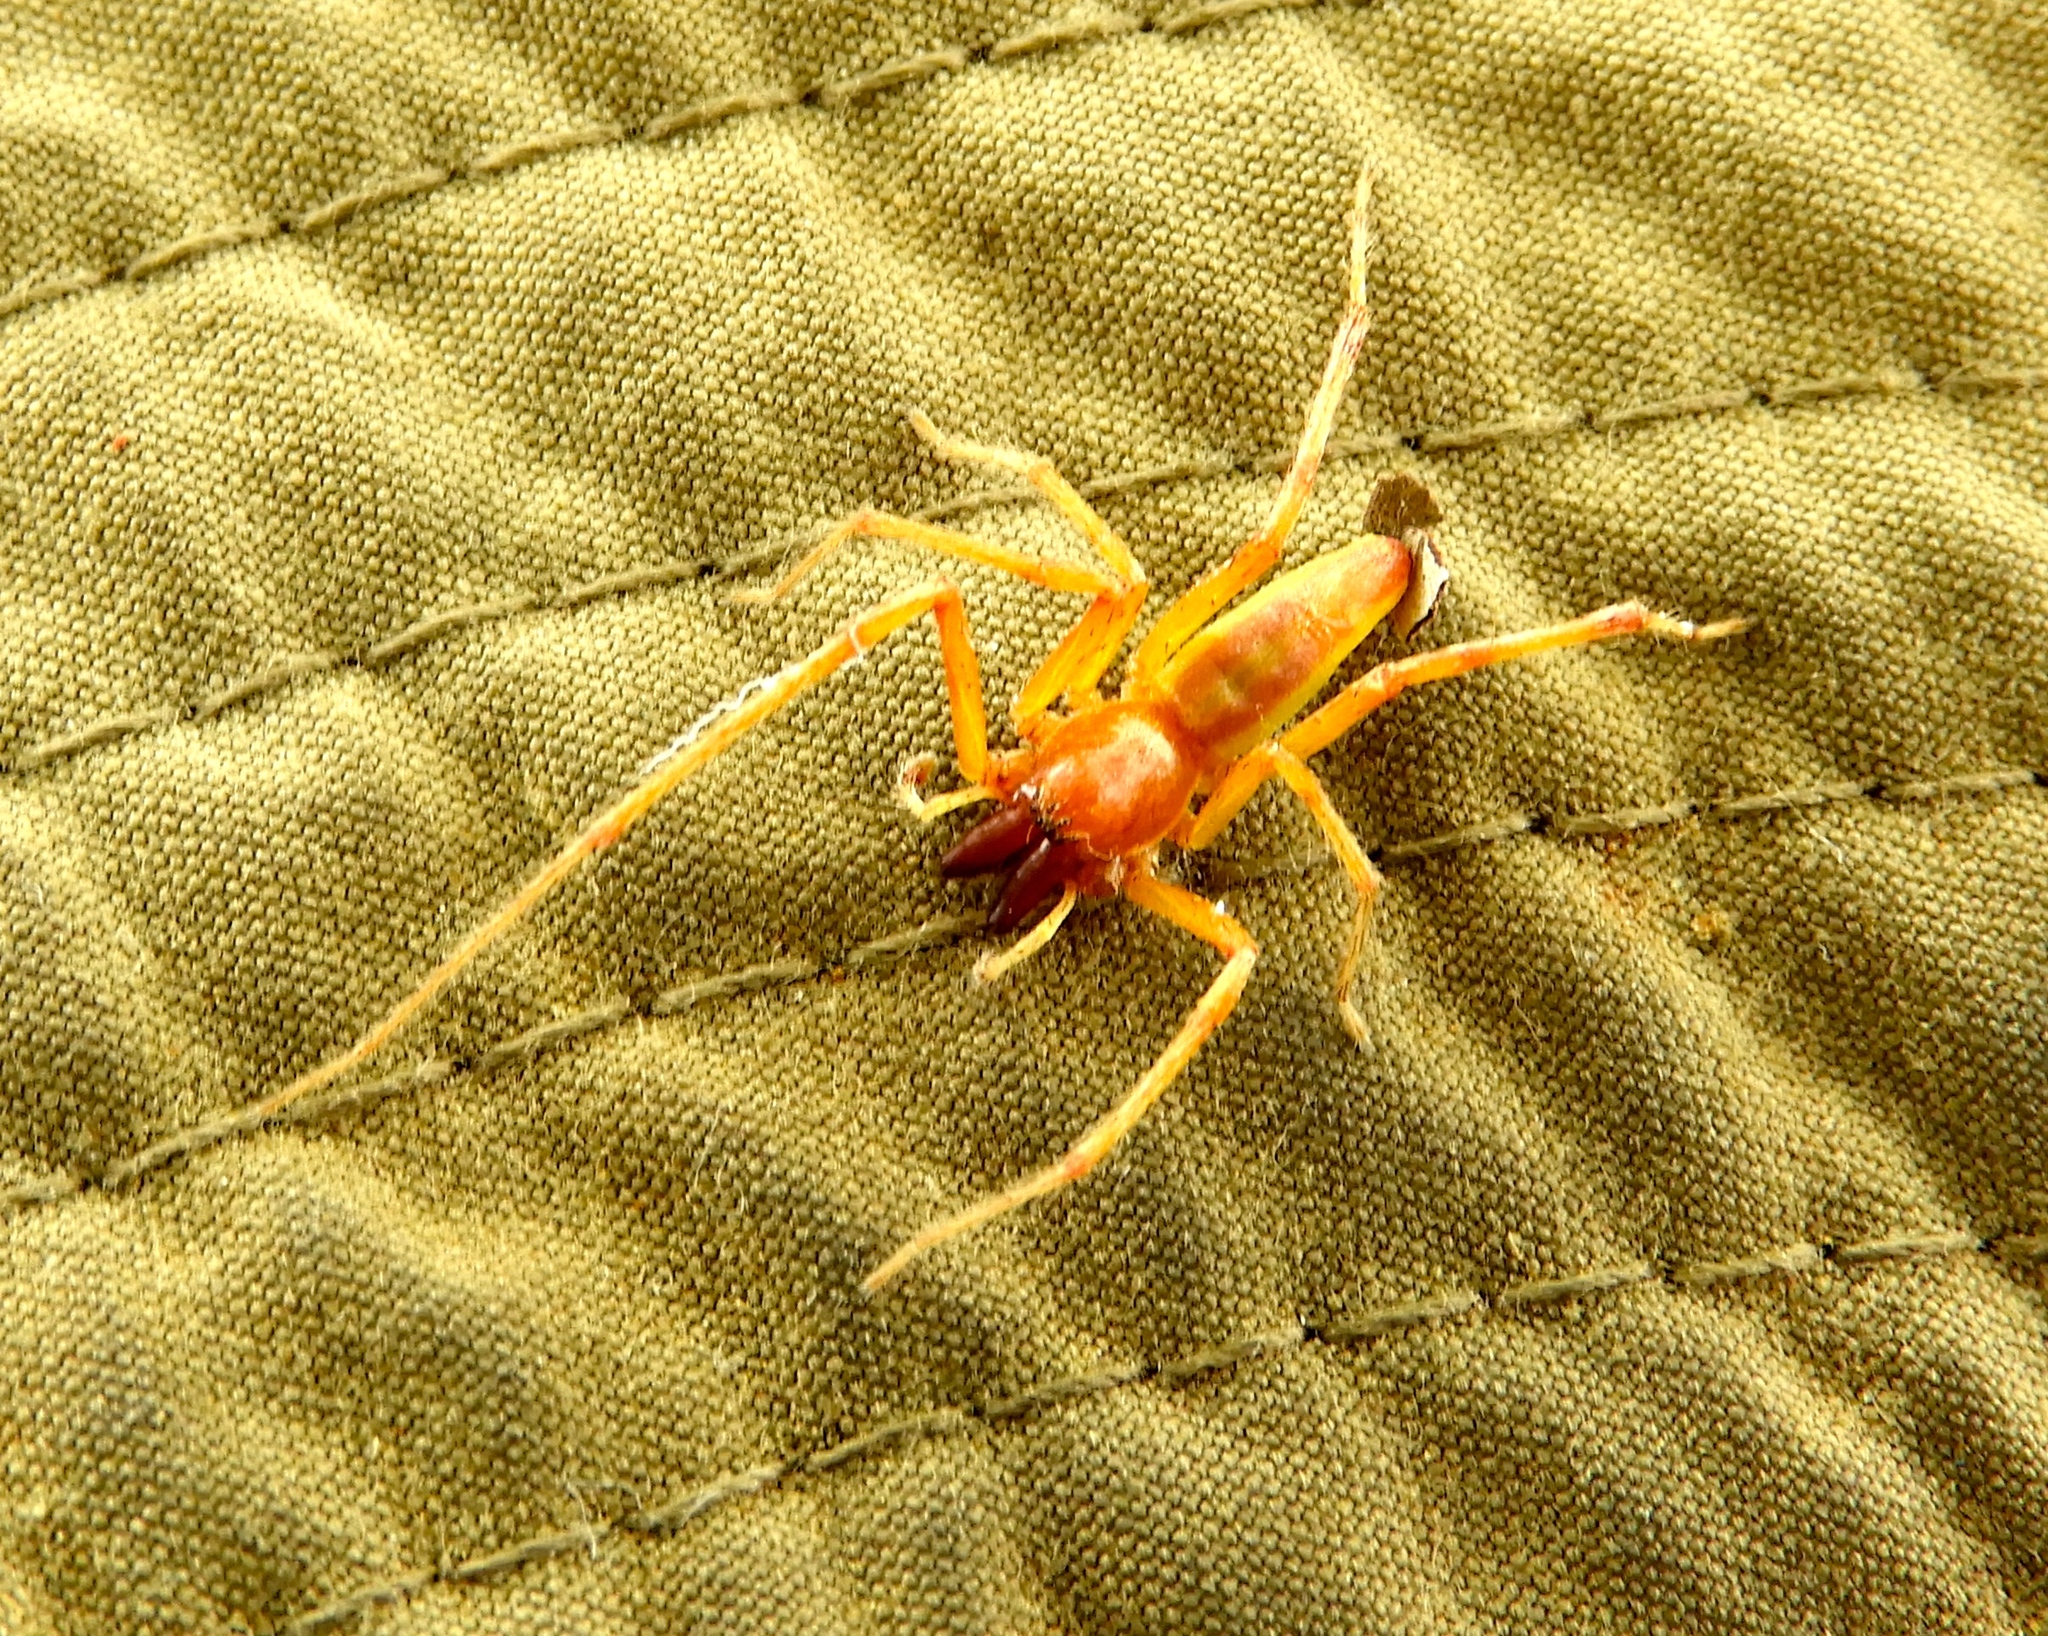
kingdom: Animalia
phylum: Arthropoda
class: Arachnida
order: Araneae
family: Anyphaenidae
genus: Hibana
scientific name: Hibana
